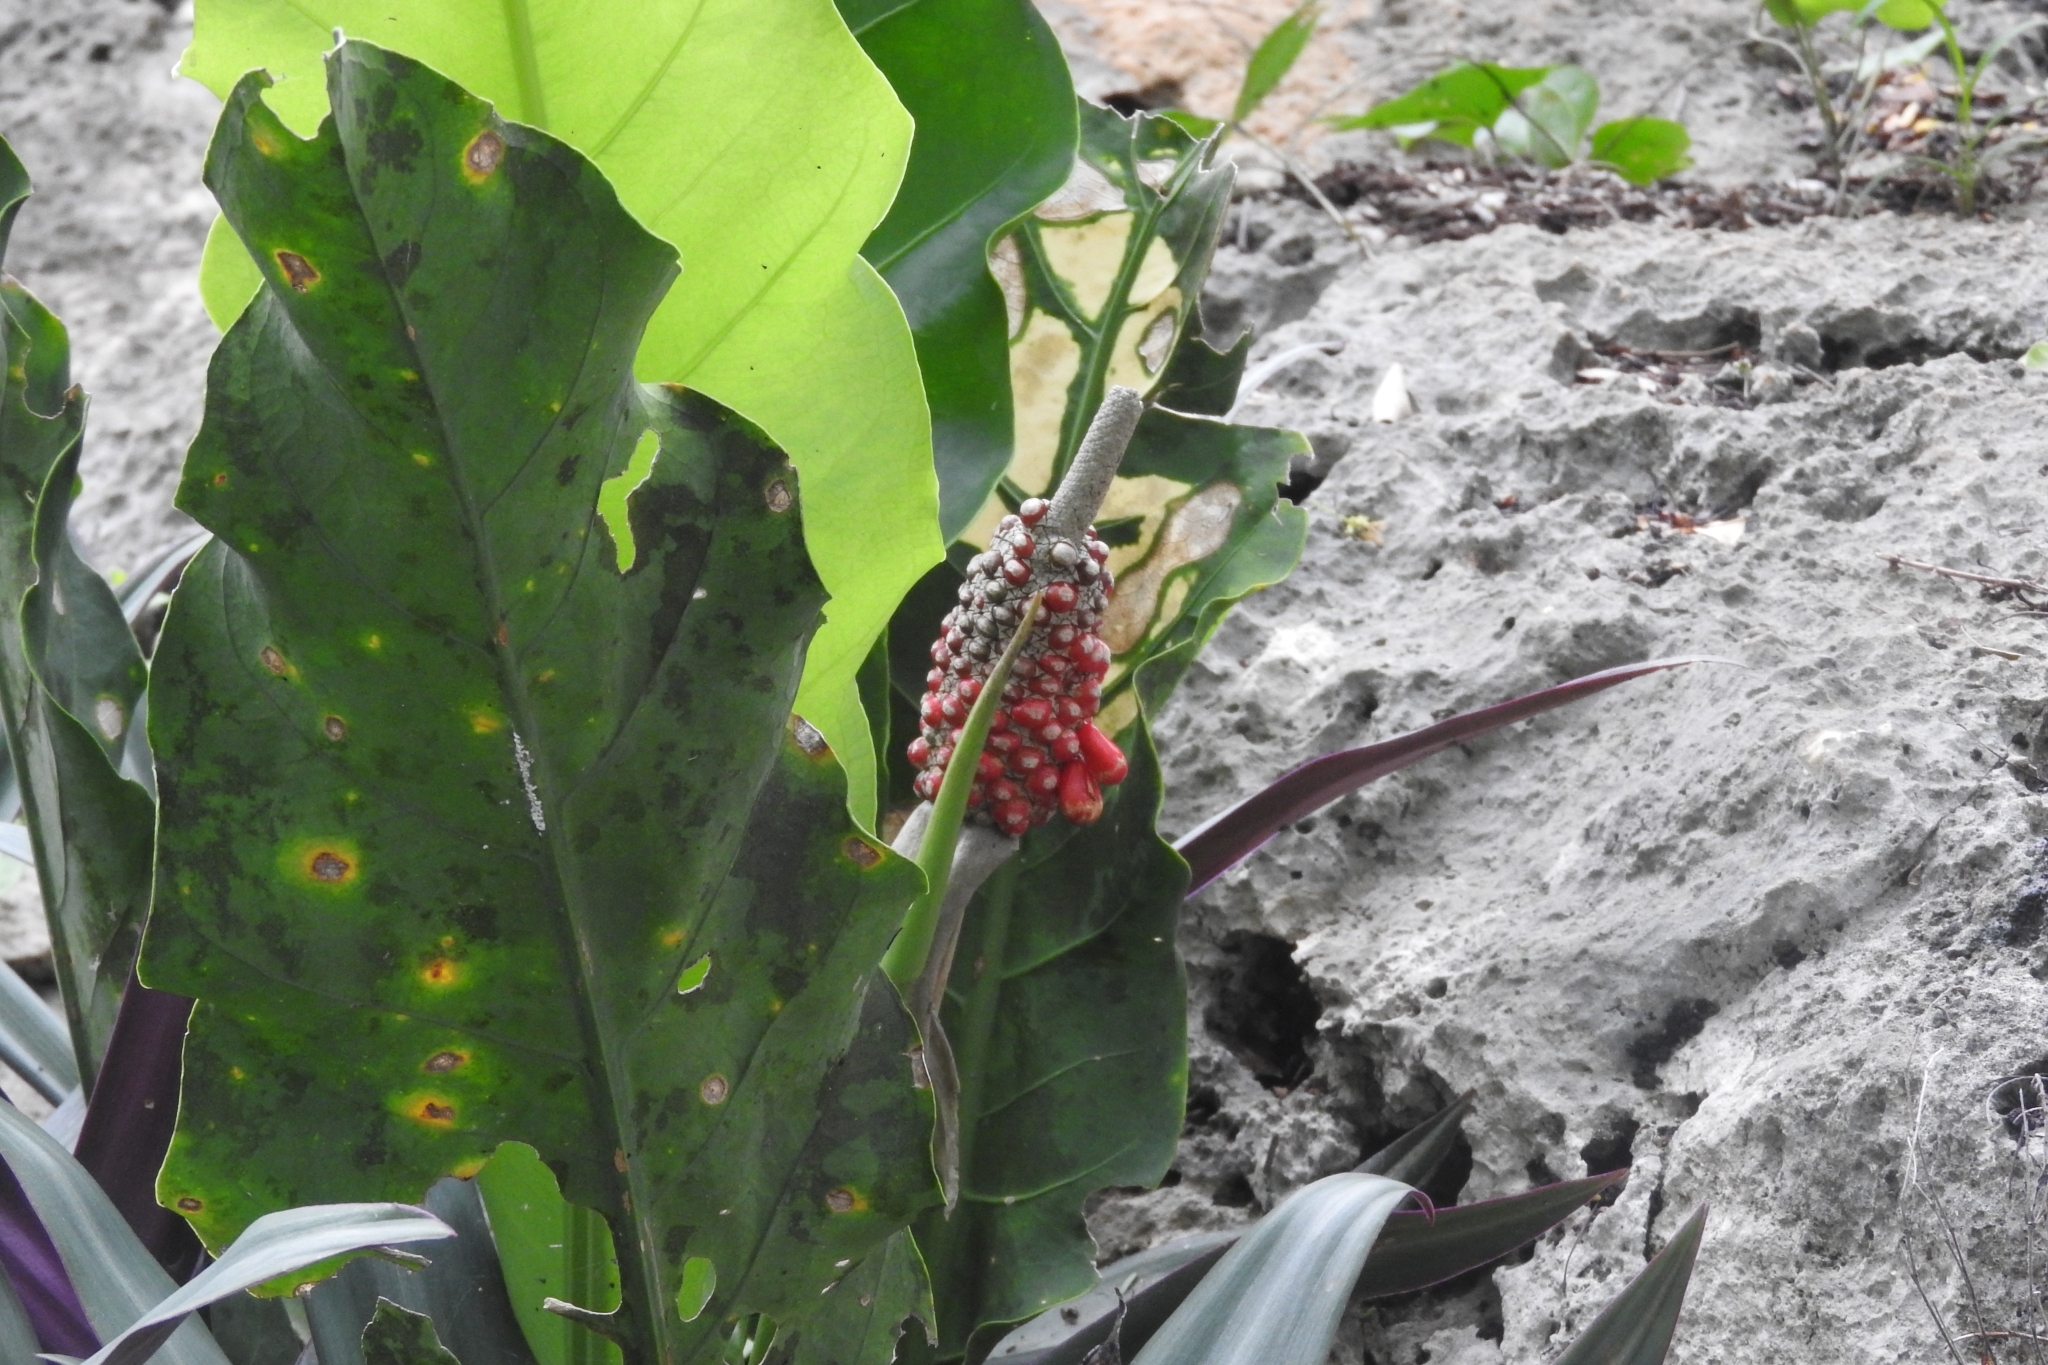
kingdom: Plantae
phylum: Tracheophyta
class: Liliopsida
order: Alismatales
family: Araceae
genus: Anthurium
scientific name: Anthurium schlechtendalii
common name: Laceleaf
